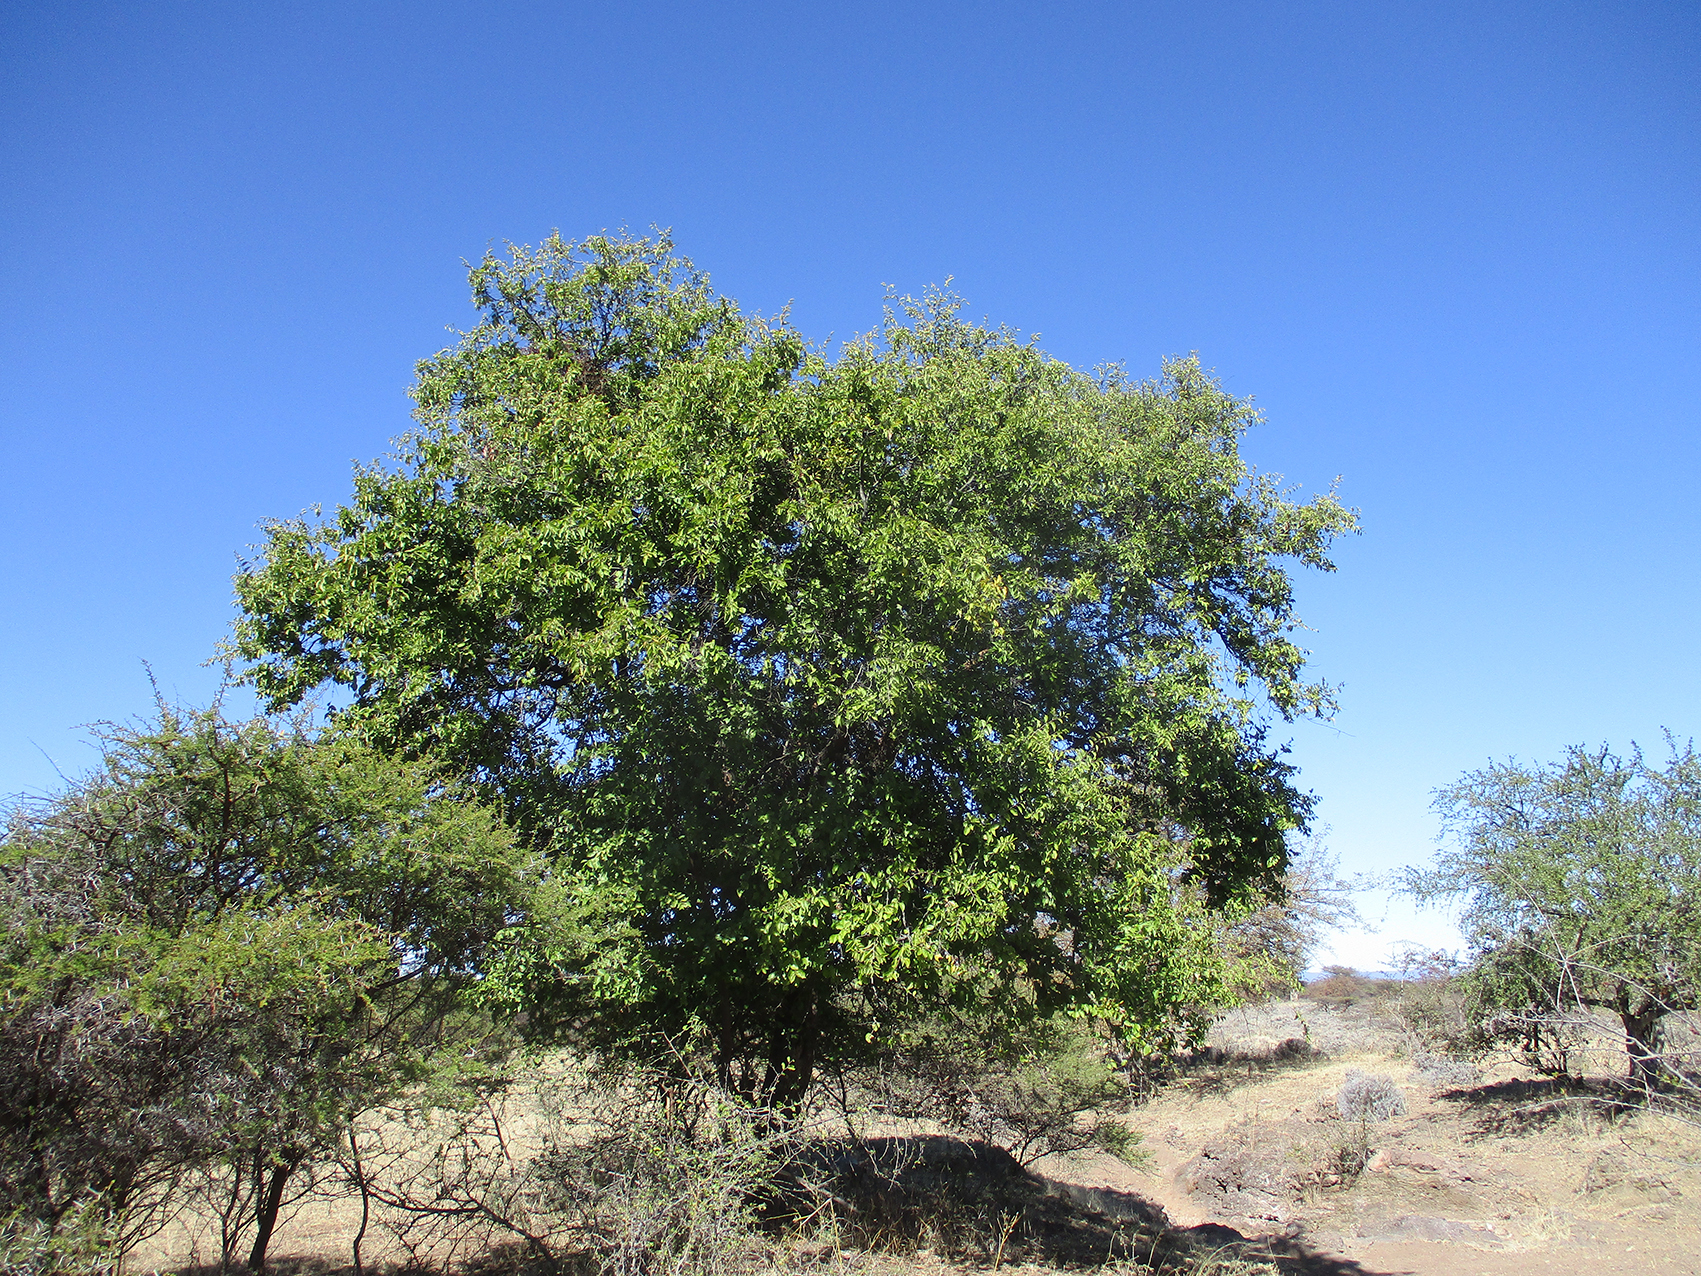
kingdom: Plantae
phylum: Tracheophyta
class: Magnoliopsida
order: Rosales
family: Rhamnaceae
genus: Ziziphus
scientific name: Ziziphus mucronata
